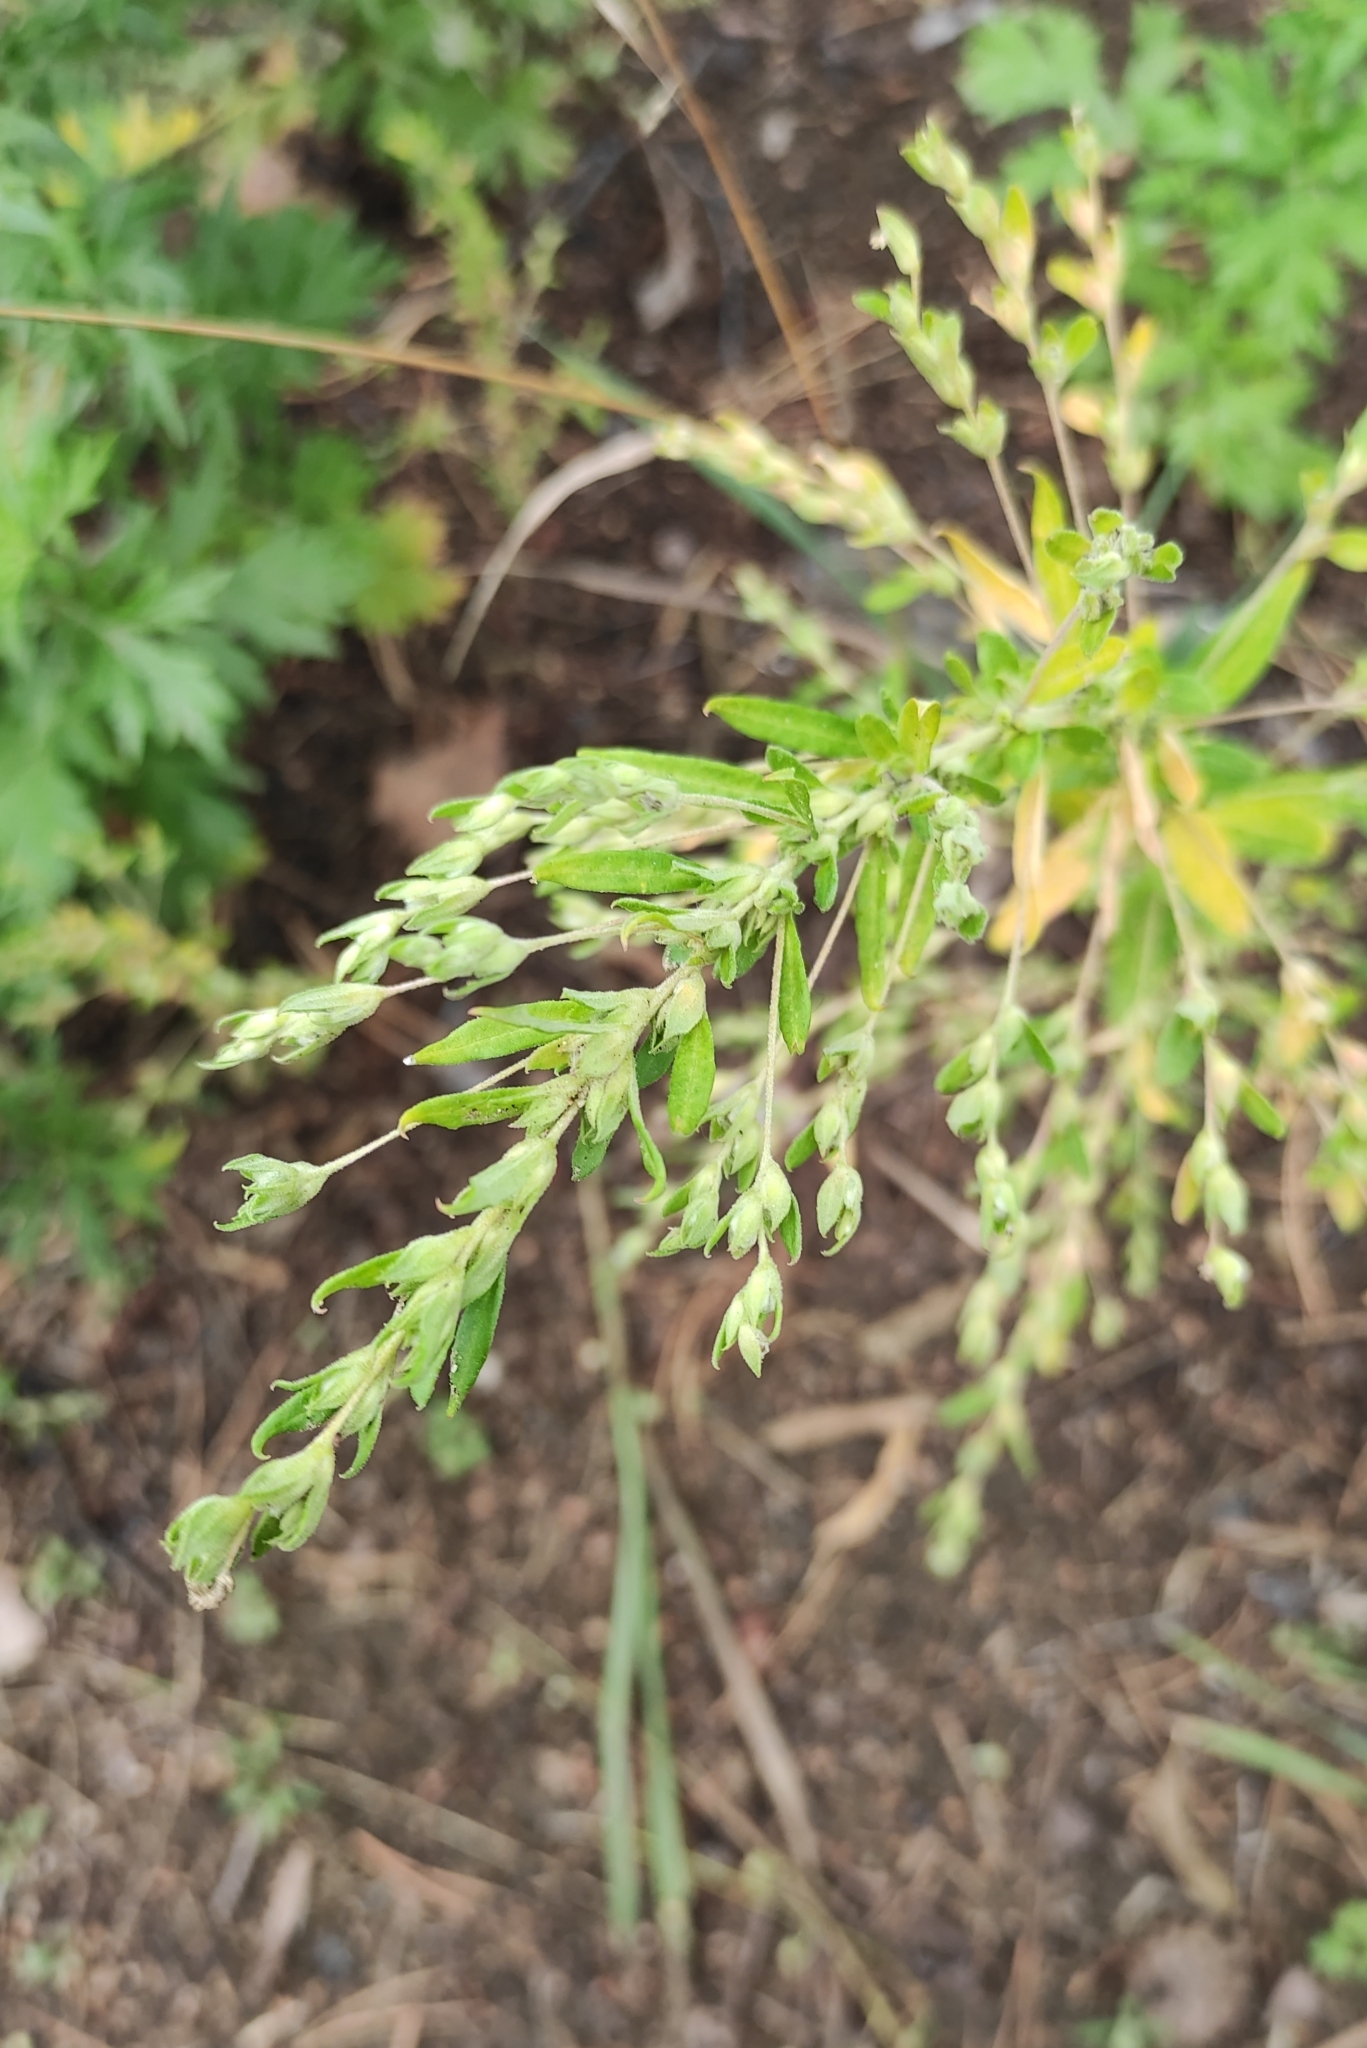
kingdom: Plantae
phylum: Tracheophyta
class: Magnoliopsida
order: Caryophyllales
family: Amaranthaceae
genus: Axyris
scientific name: Axyris amaranthoides
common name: Russian pigweed
